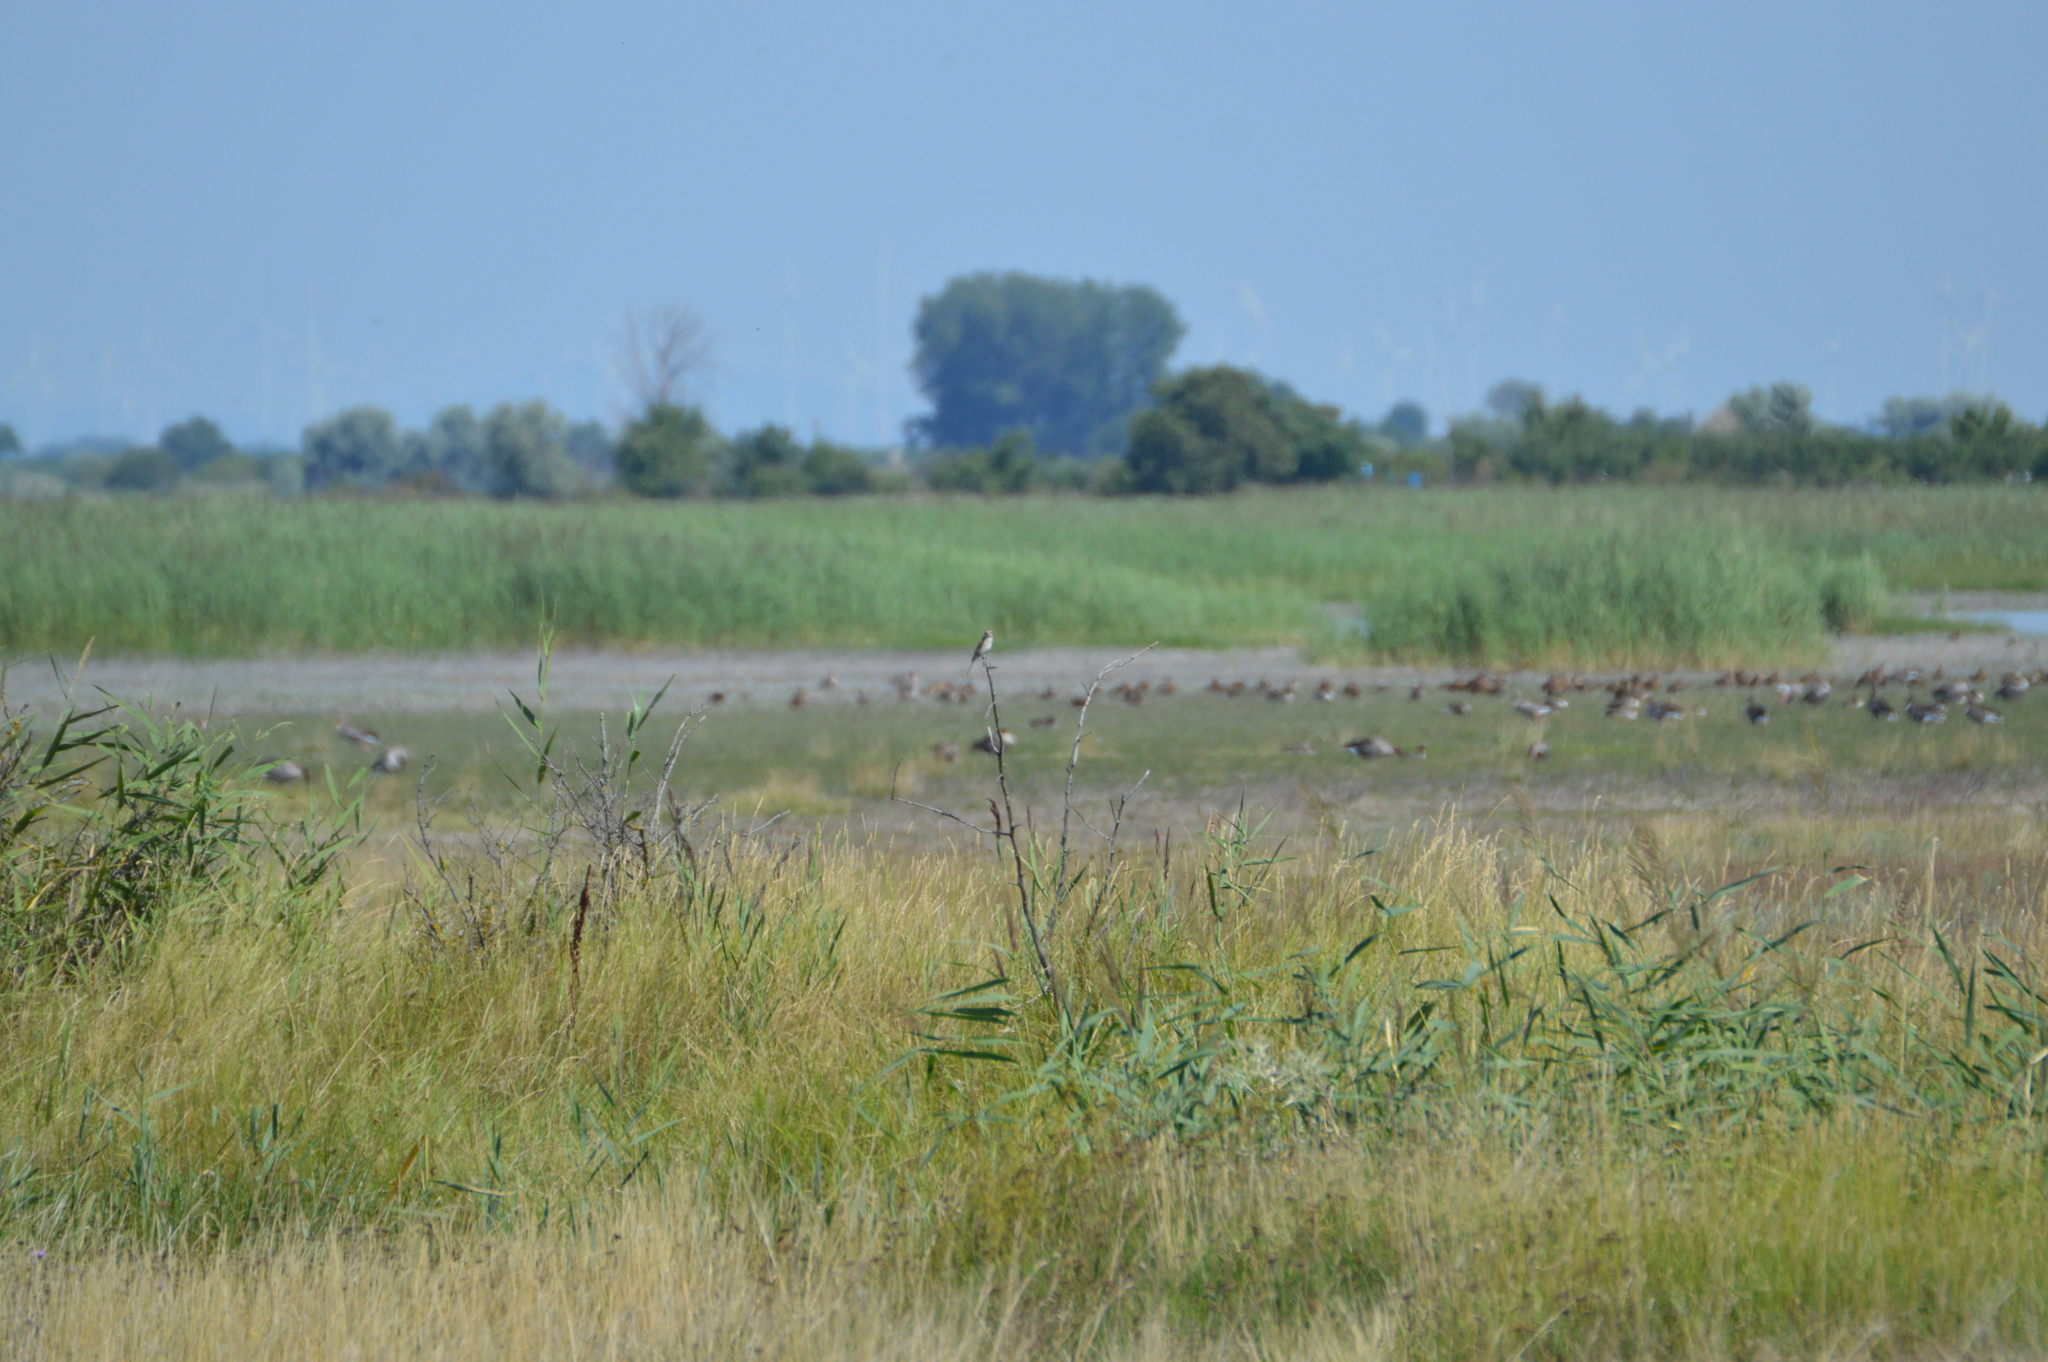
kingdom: Animalia
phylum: Chordata
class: Aves
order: Anseriformes
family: Anatidae
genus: Anser
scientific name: Anser anser
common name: Greylag goose
